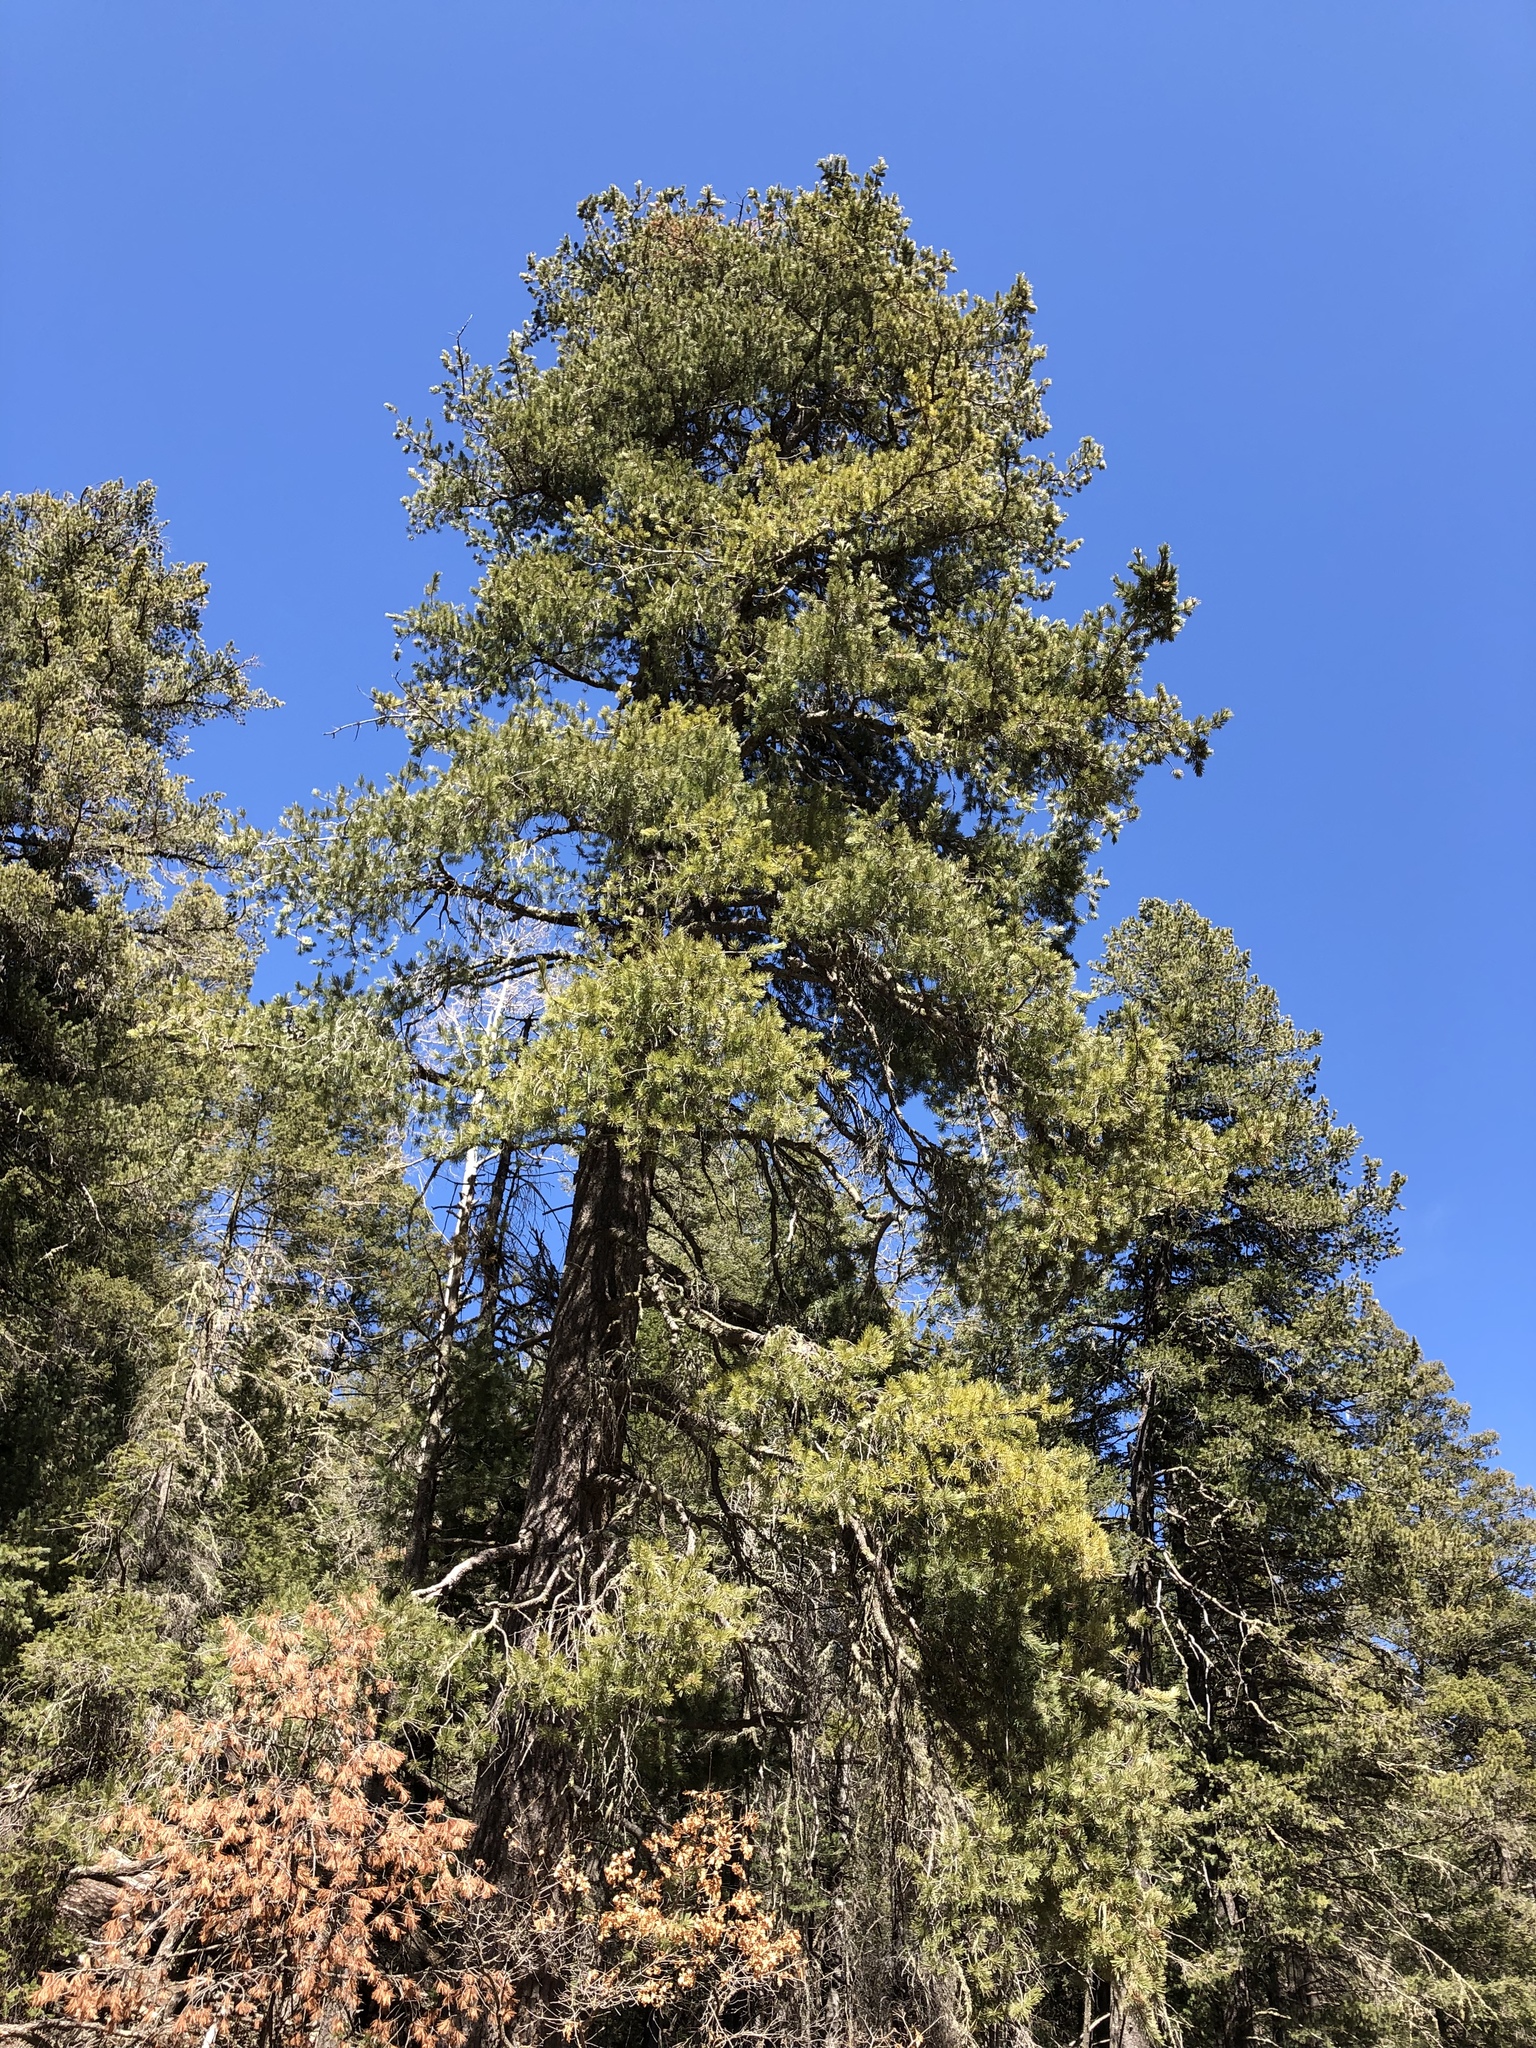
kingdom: Plantae
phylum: Tracheophyta
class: Pinopsida
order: Pinales
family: Pinaceae
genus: Pseudotsuga
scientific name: Pseudotsuga menziesii
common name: Douglas fir
